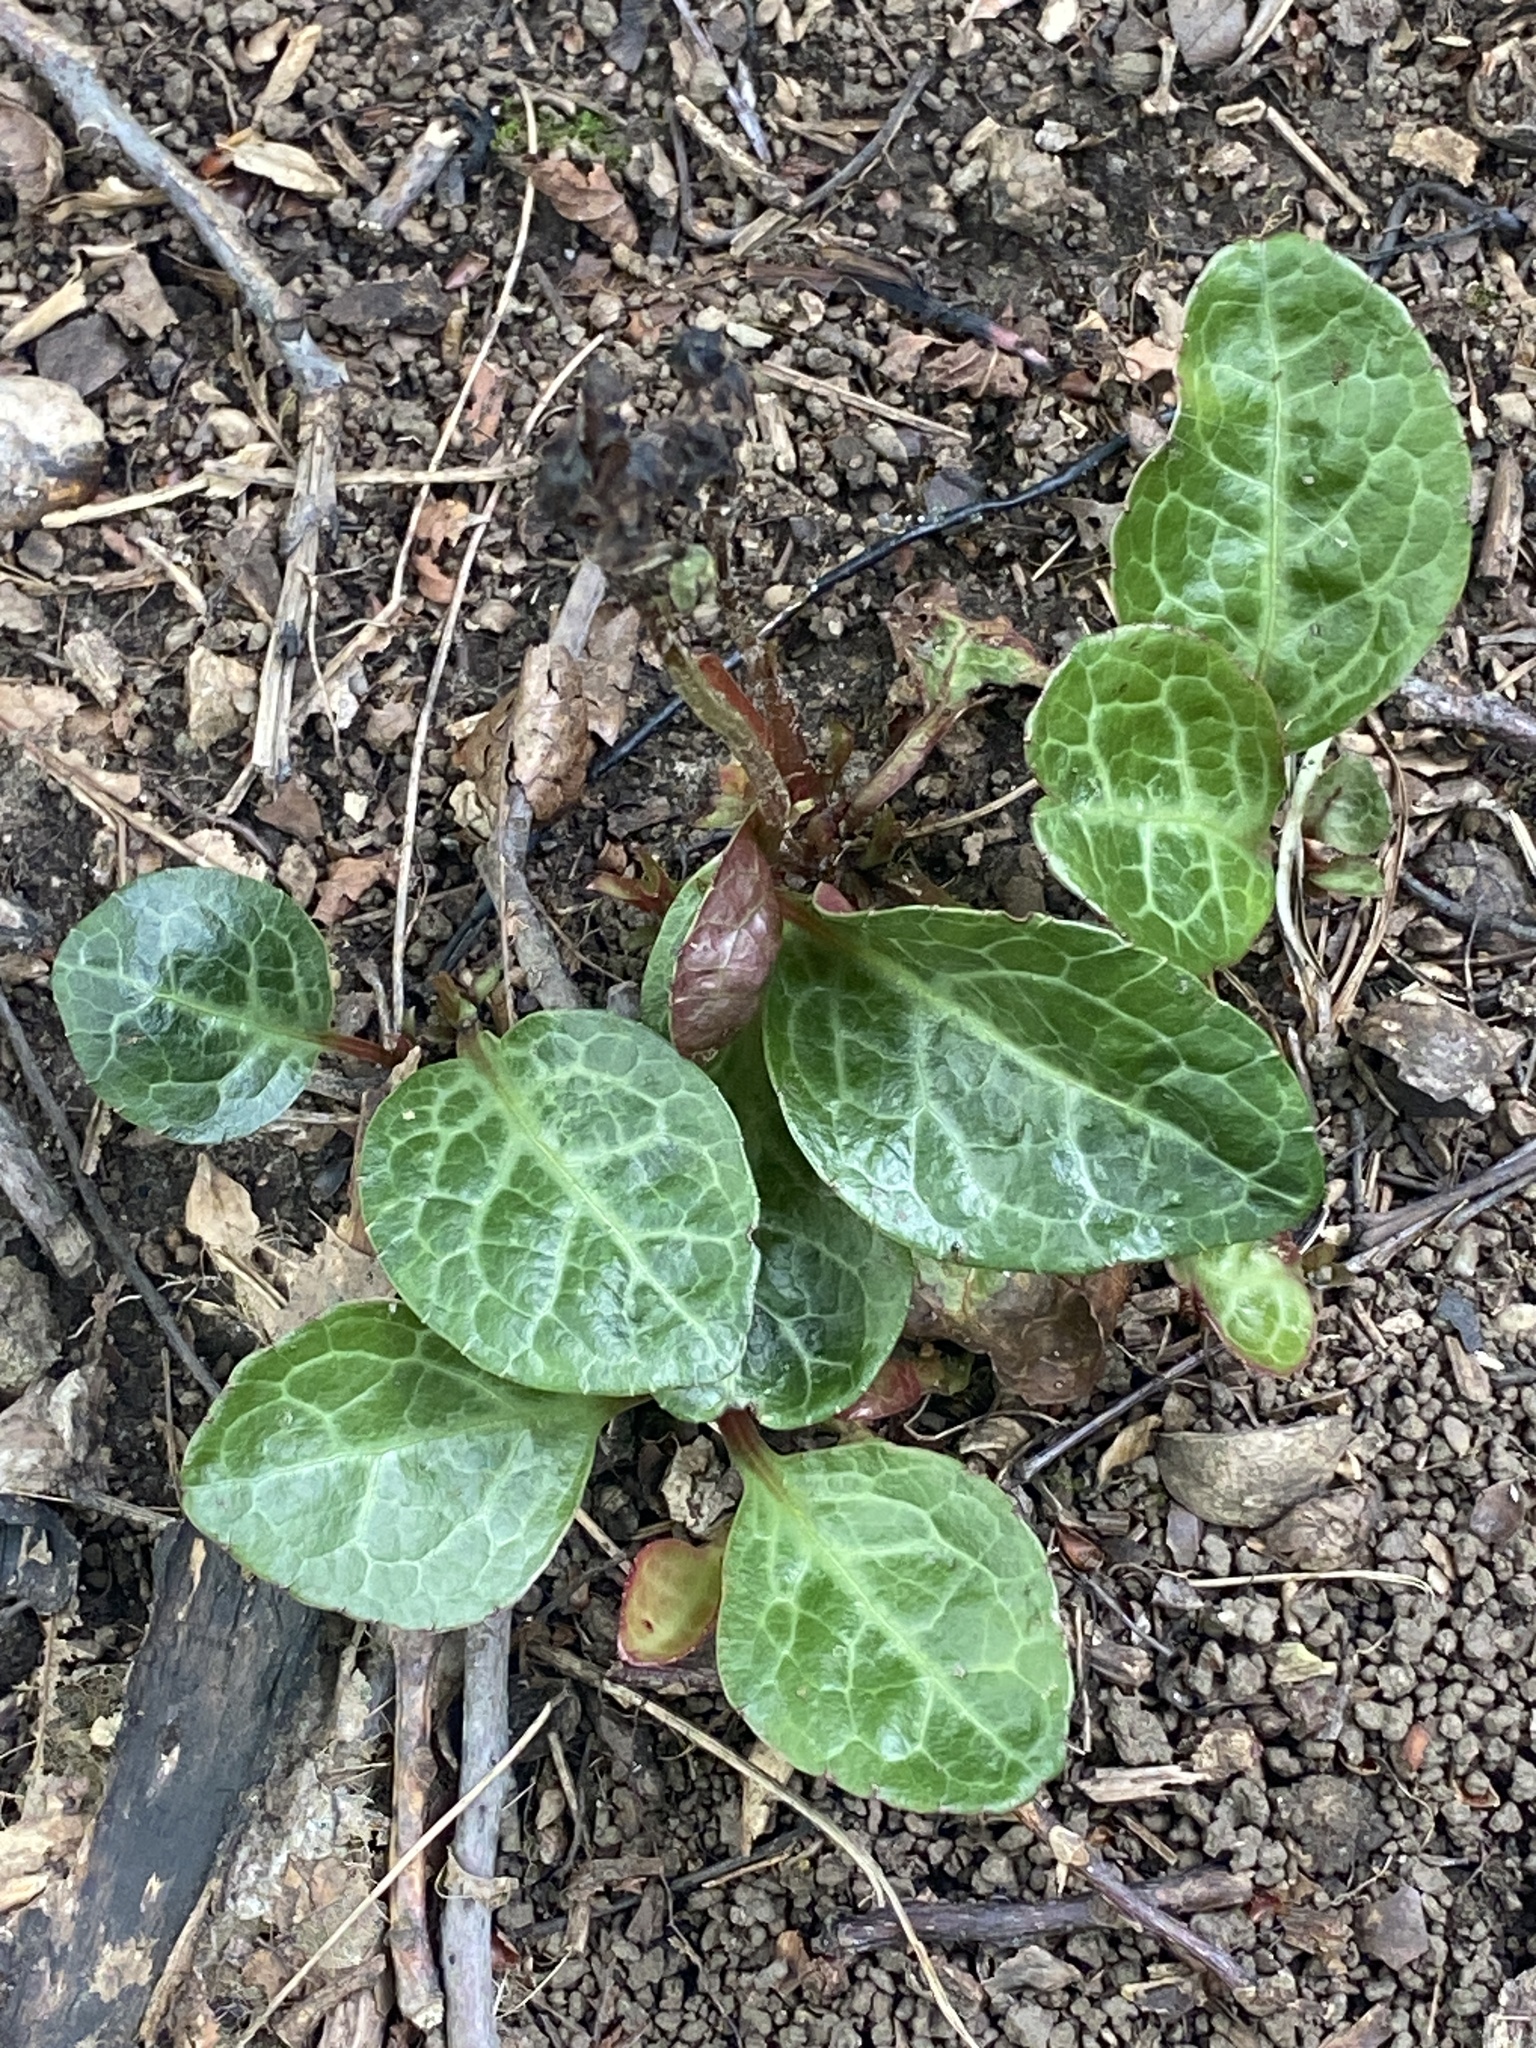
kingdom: Plantae
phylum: Tracheophyta
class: Magnoliopsida
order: Ericales
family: Ericaceae
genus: Pyrola
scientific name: Pyrola americana
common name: American wintergreen
